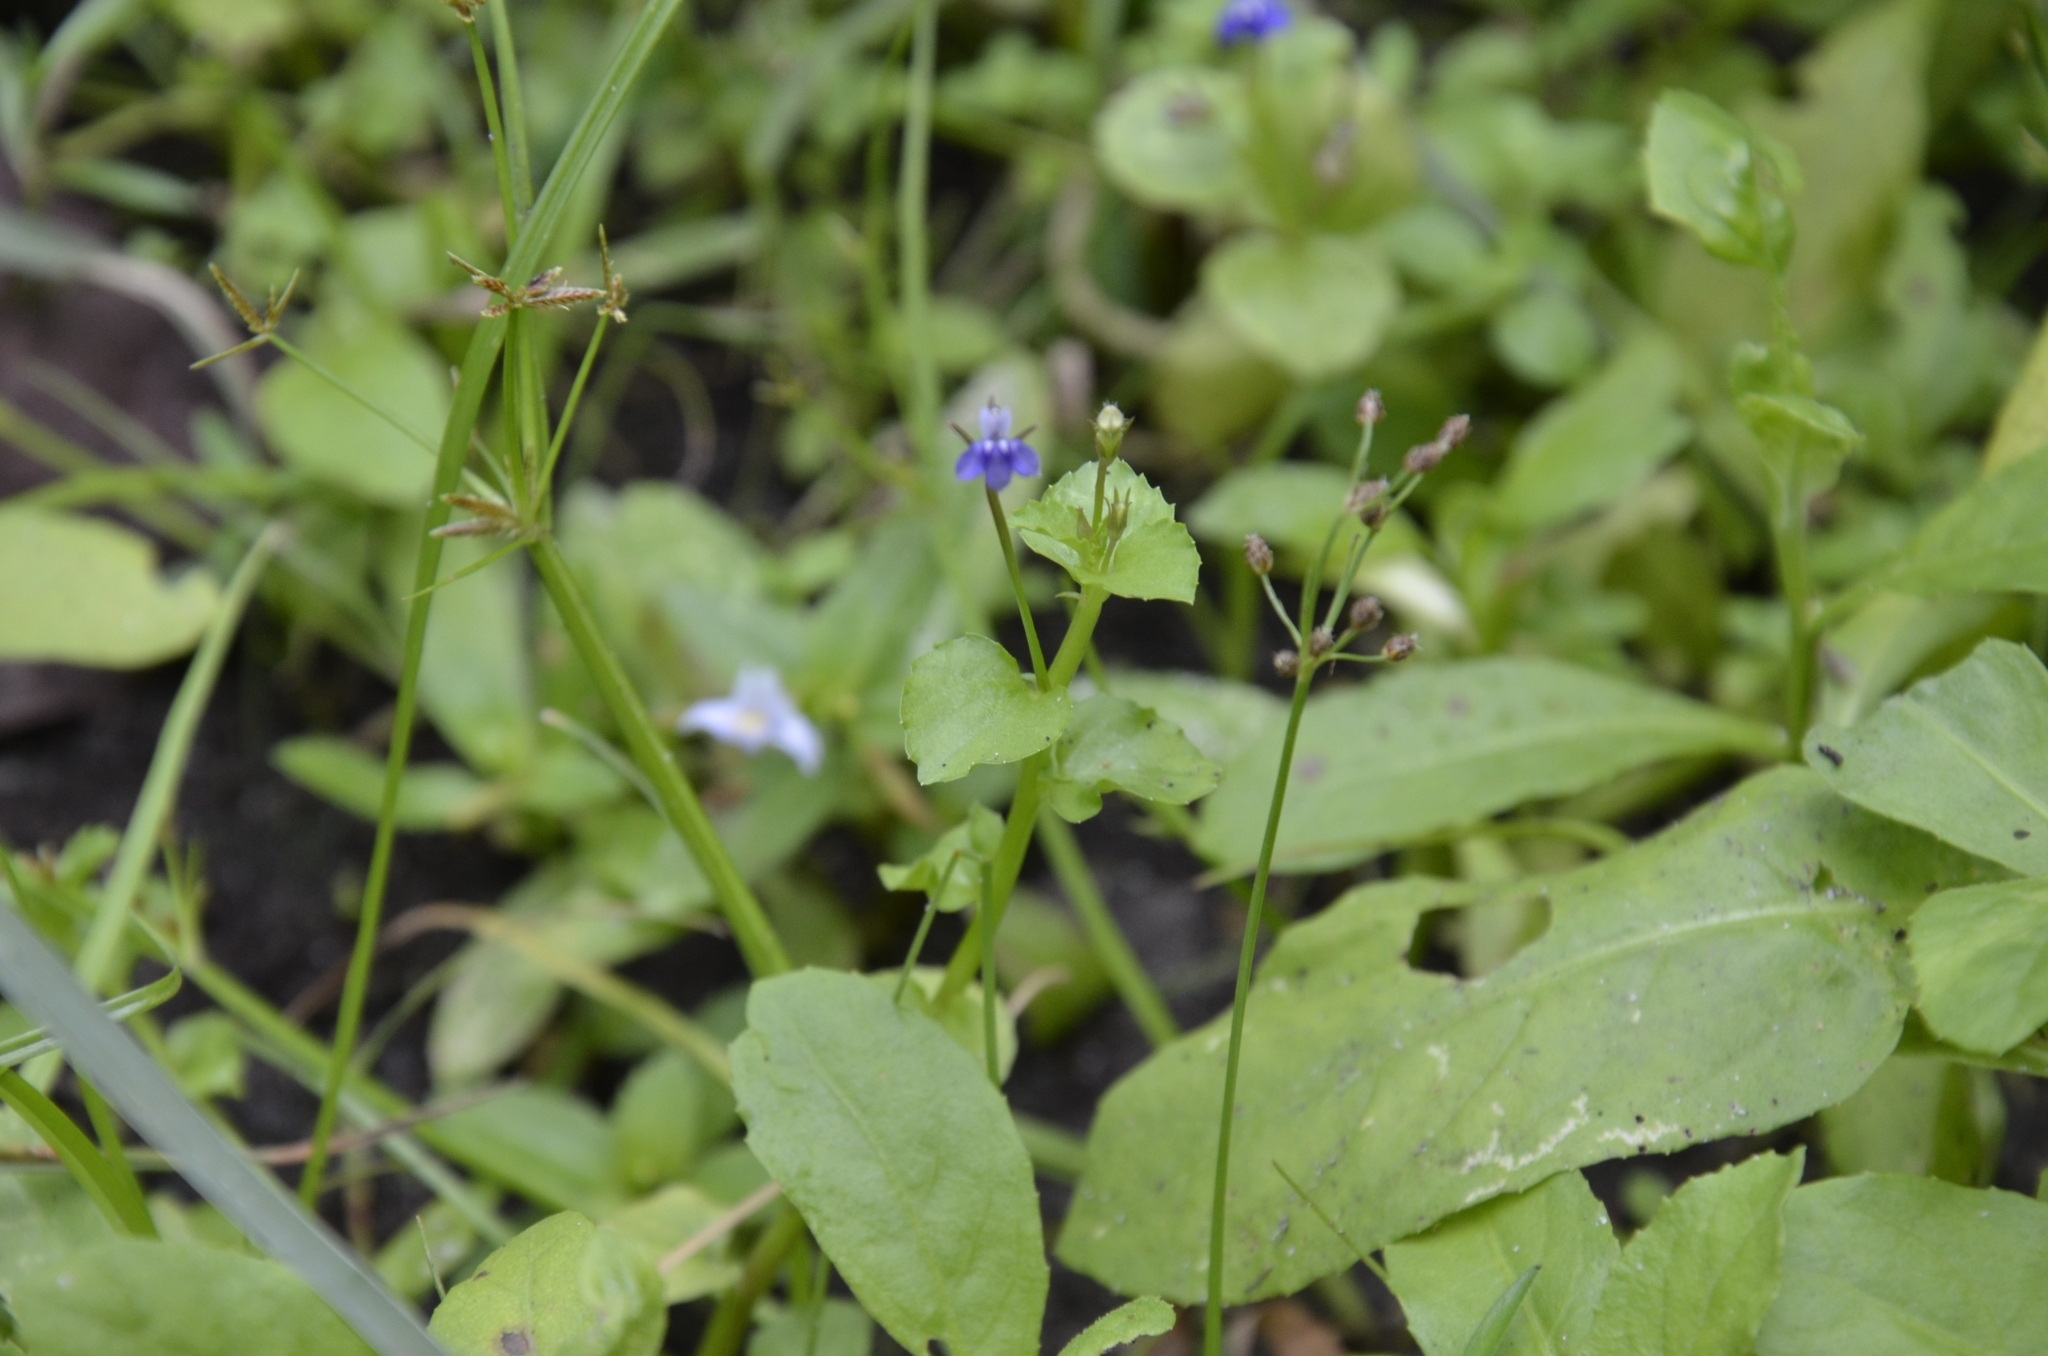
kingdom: Plantae
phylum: Tracheophyta
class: Magnoliopsida
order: Asterales
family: Campanulaceae
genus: Lobelia
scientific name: Lobelia alsinoides
